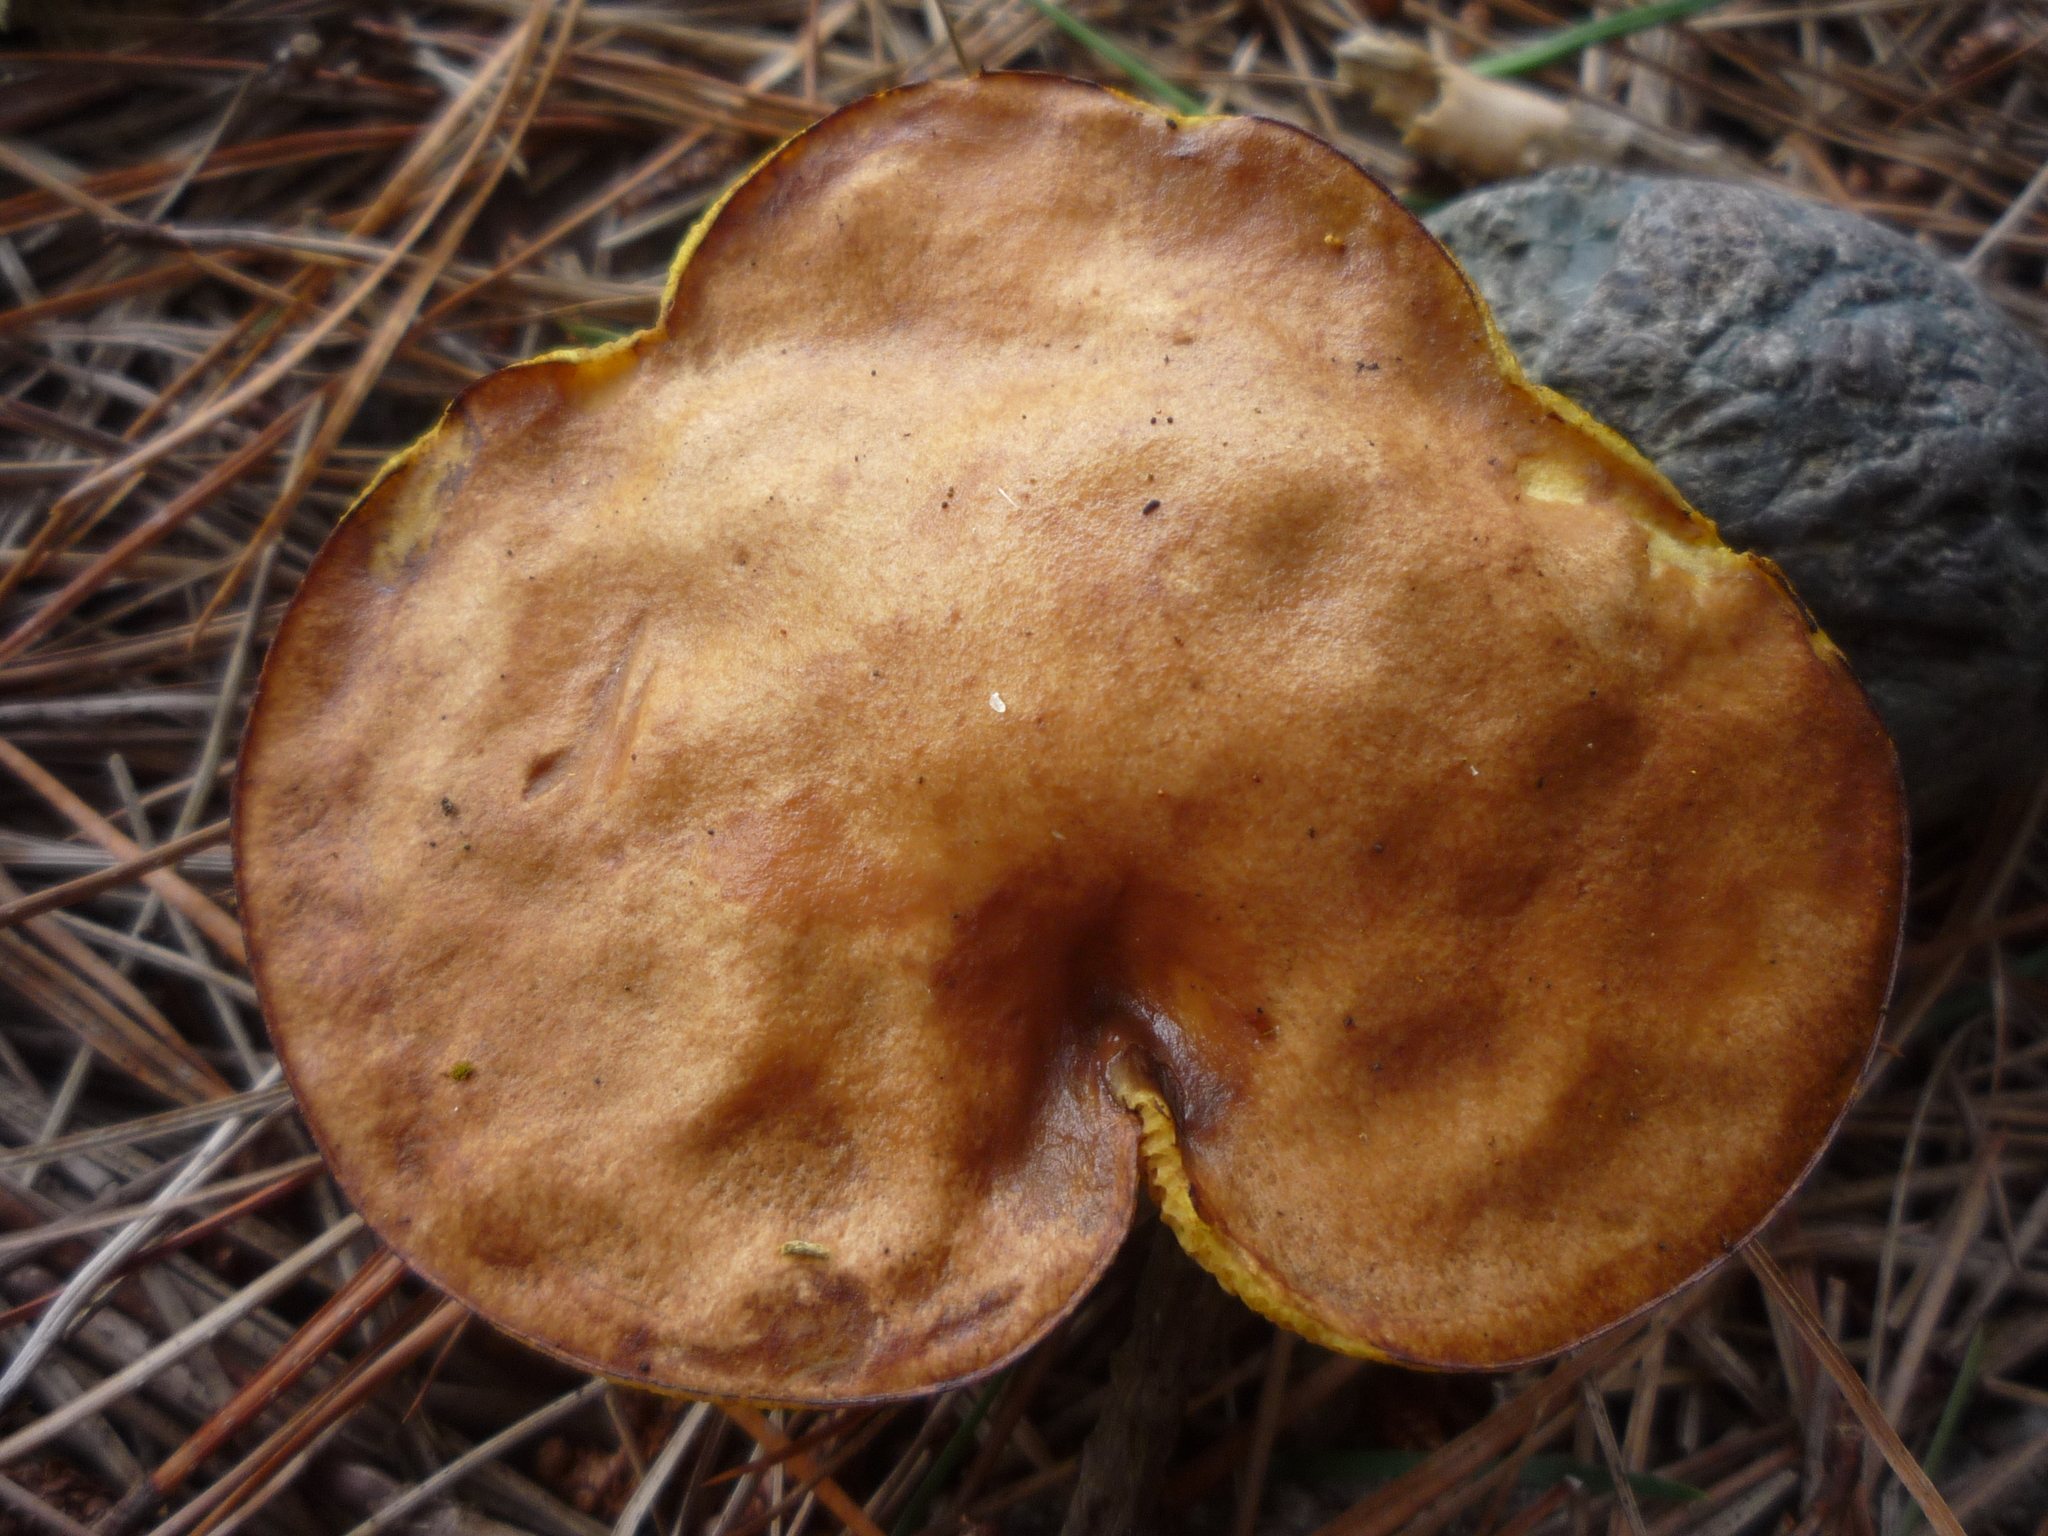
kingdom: Fungi
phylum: Basidiomycota
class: Agaricomycetes
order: Boletales
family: Suillaceae
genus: Suillus
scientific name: Suillus granulatus
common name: Weeping bolete
